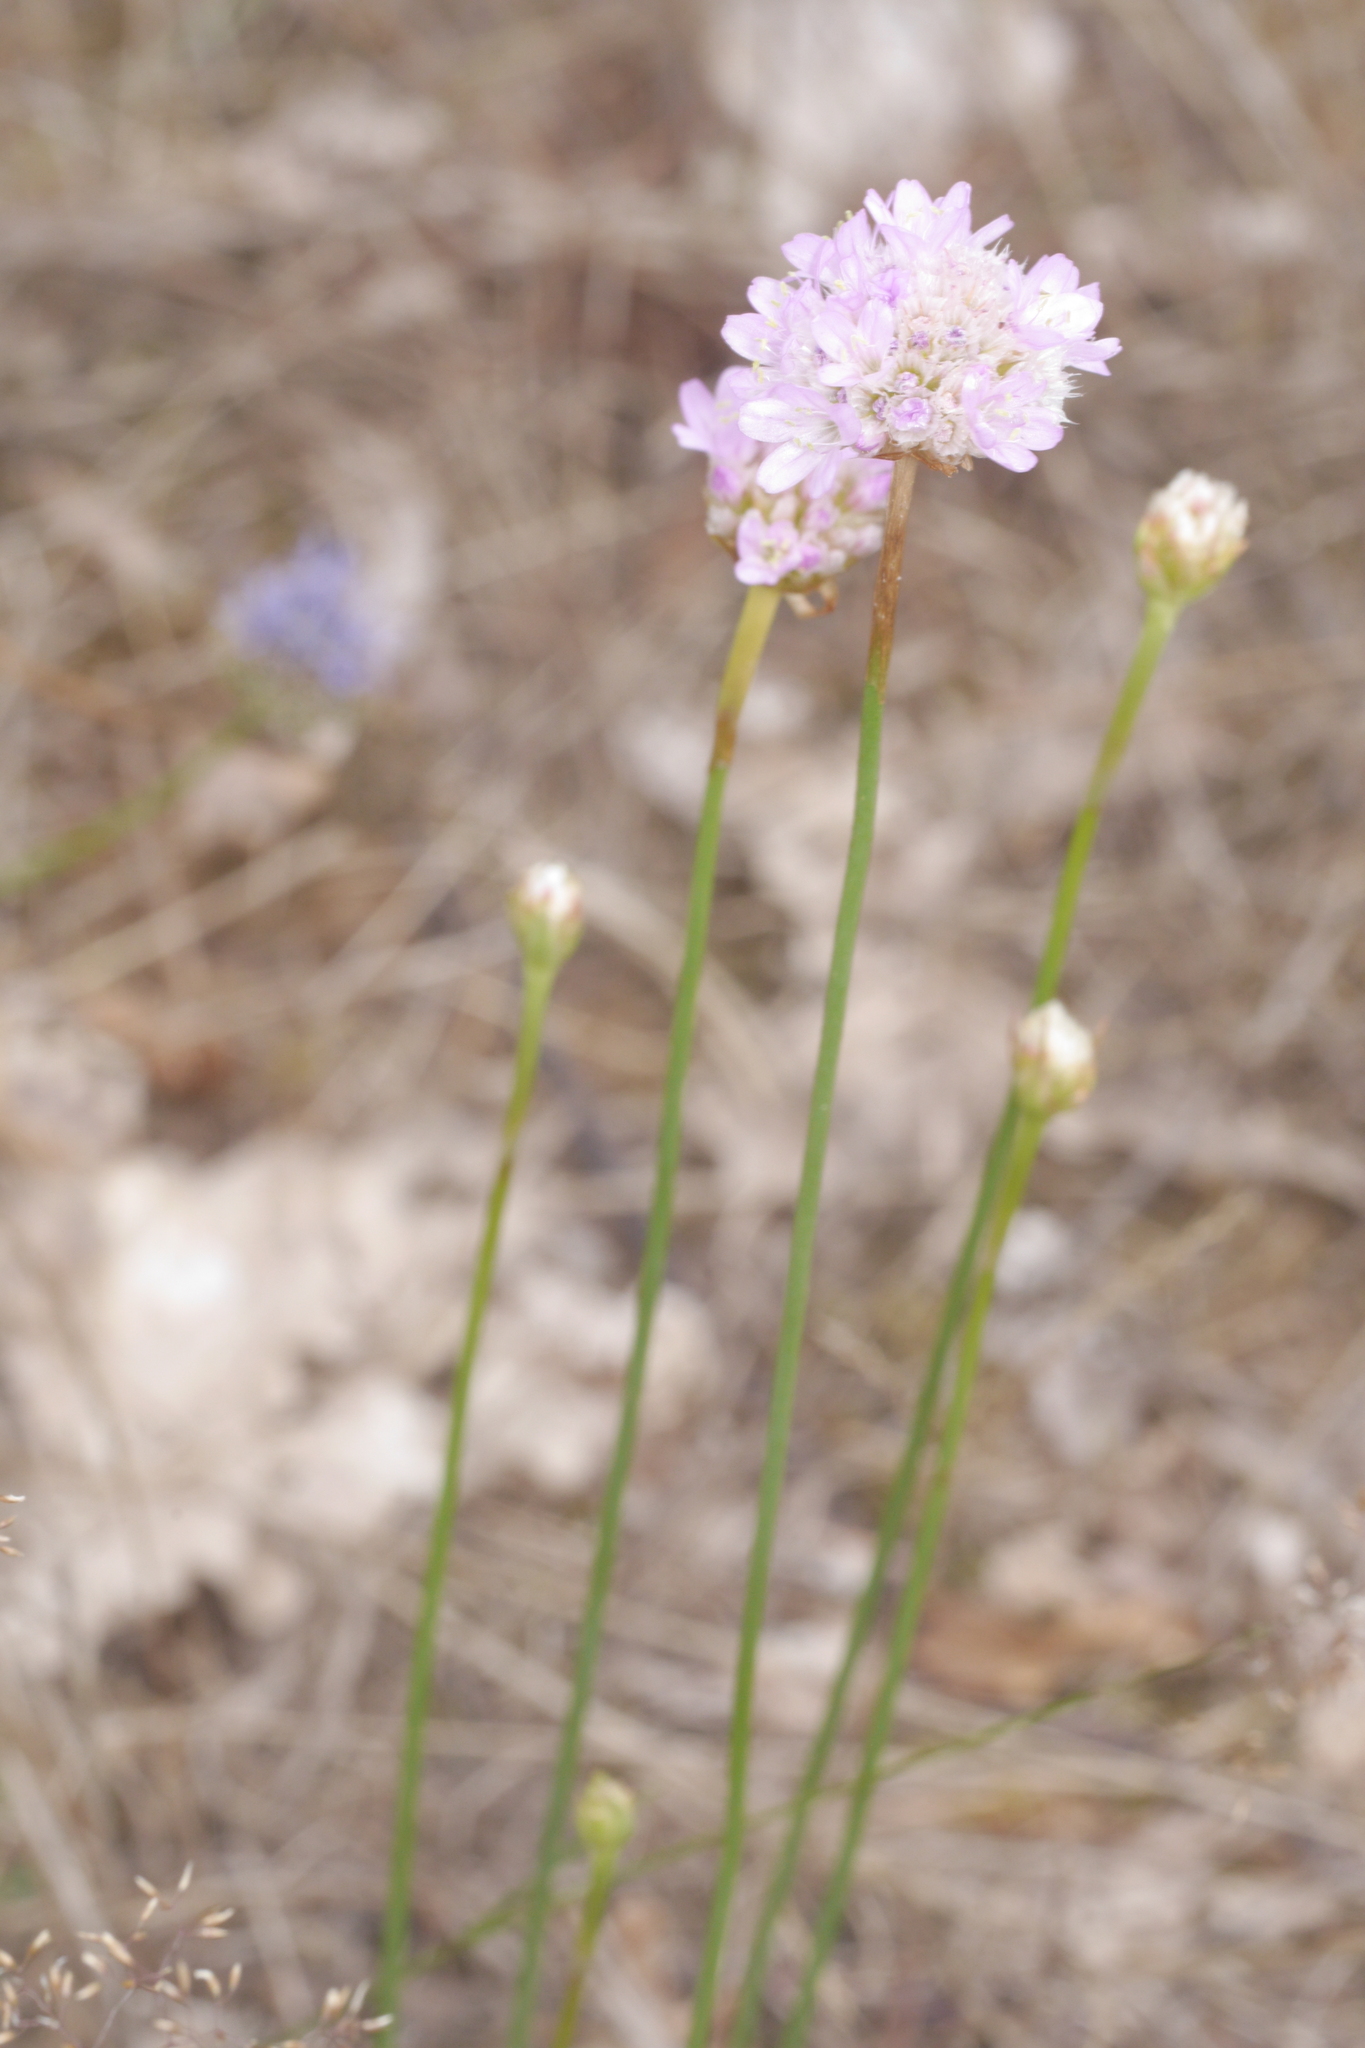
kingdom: Plantae
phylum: Tracheophyta
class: Magnoliopsida
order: Caryophyllales
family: Plumbaginaceae
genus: Armeria
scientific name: Armeria maritima
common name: Thrift
